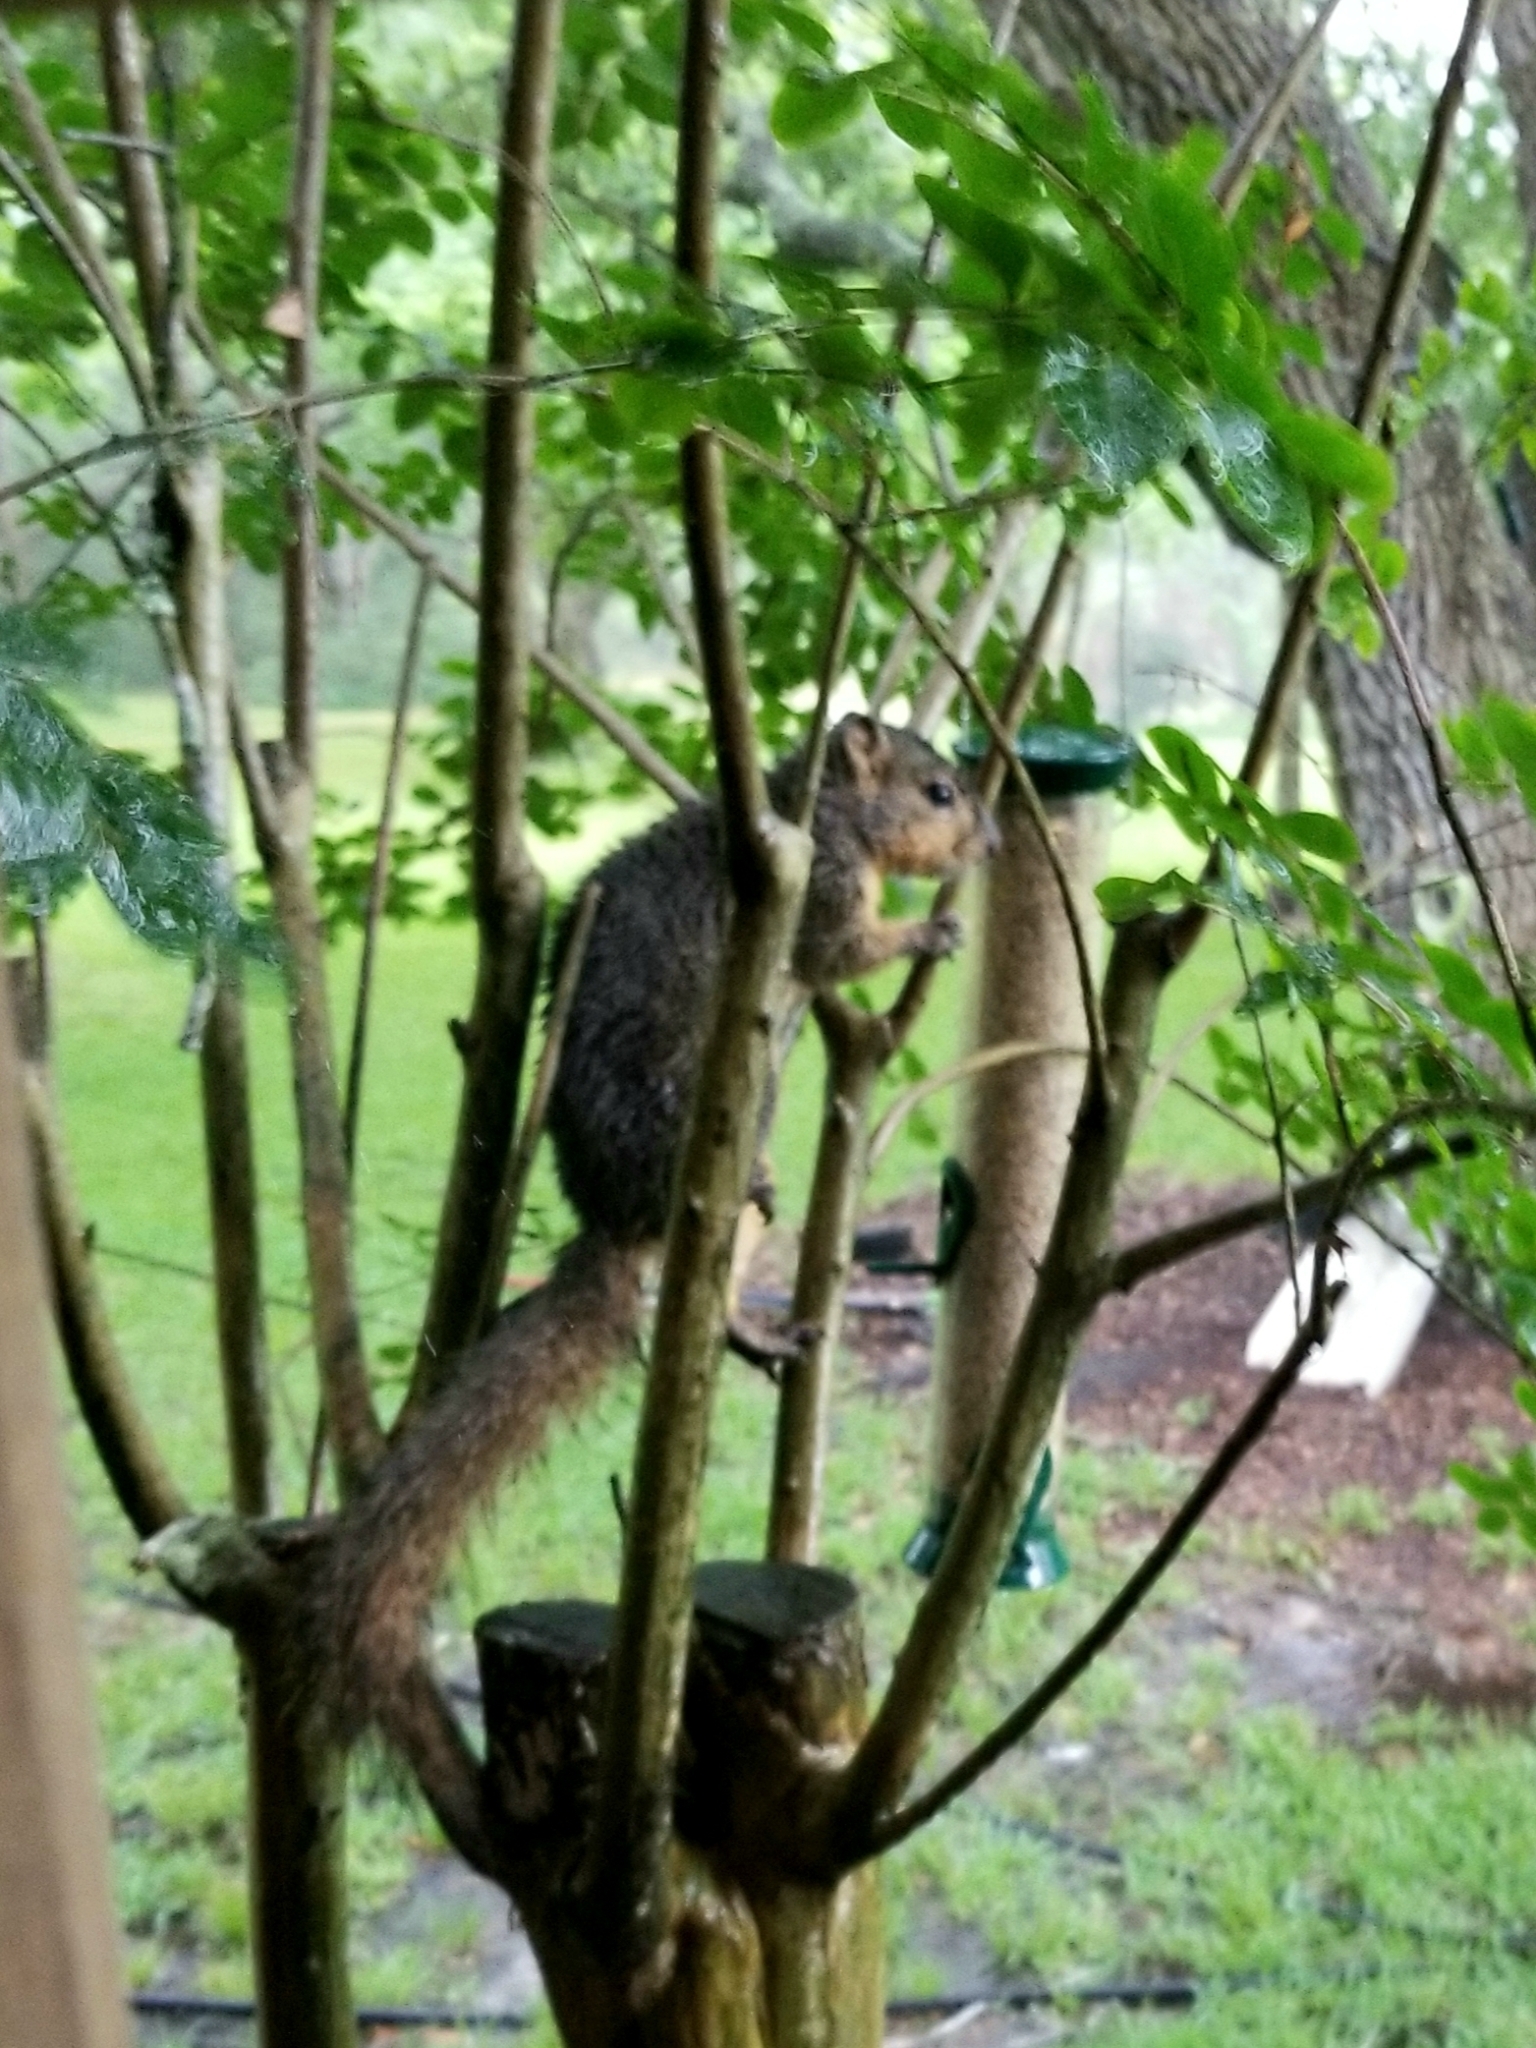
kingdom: Animalia
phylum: Chordata
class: Mammalia
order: Rodentia
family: Sciuridae
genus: Sciurus
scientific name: Sciurus niger
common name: Fox squirrel
